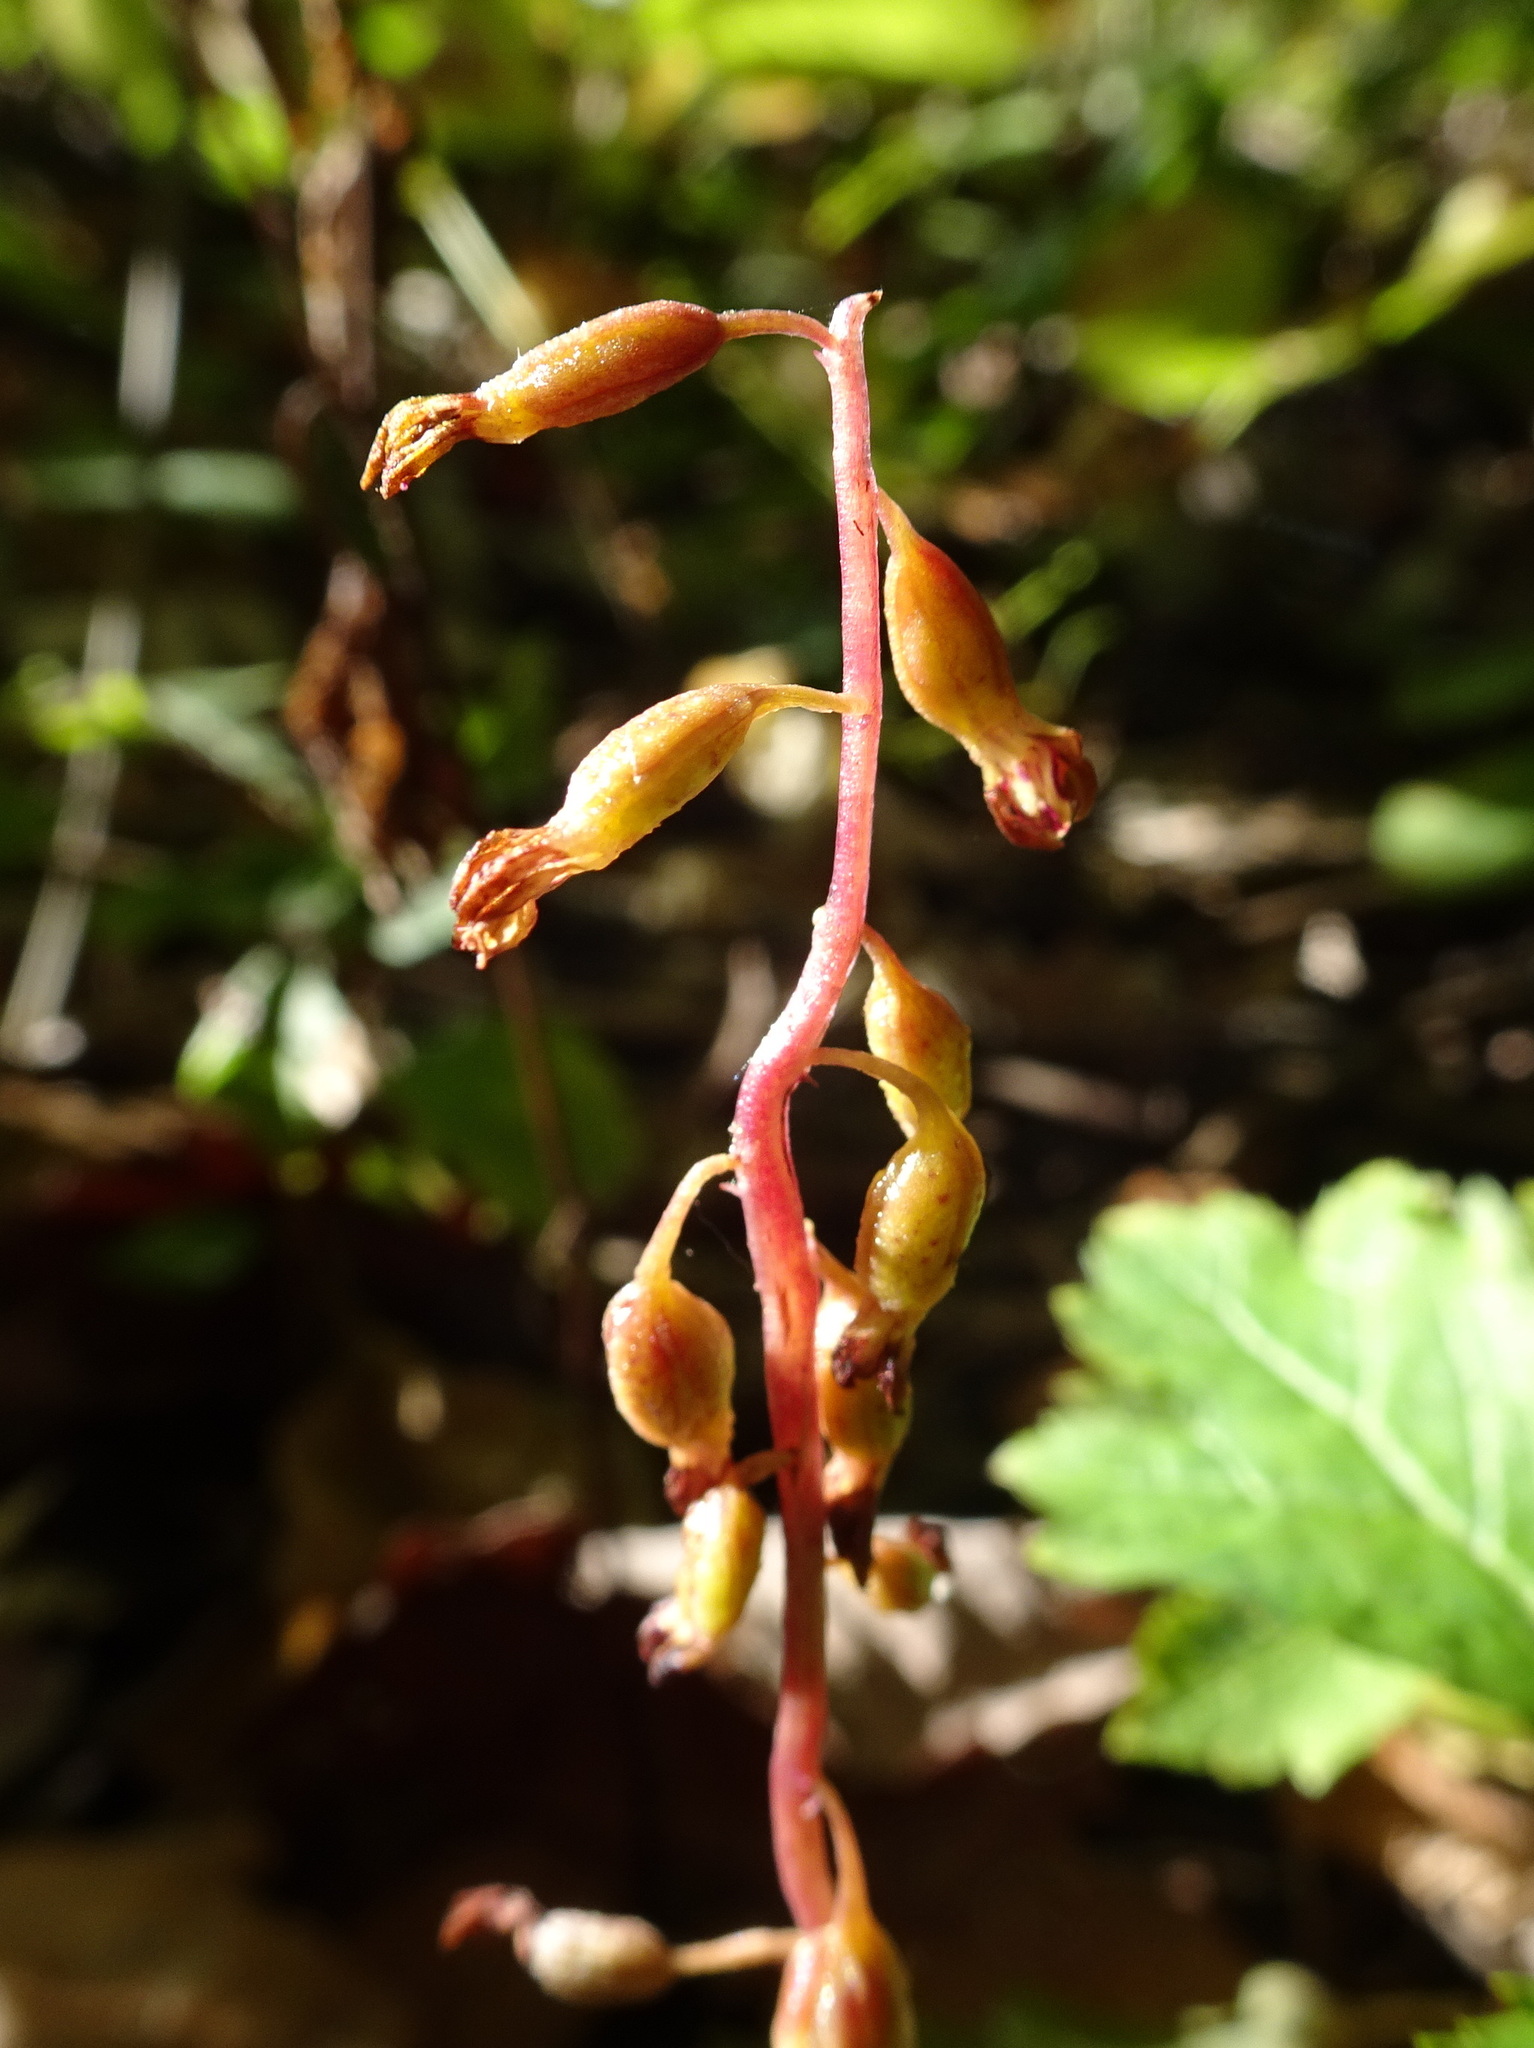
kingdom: Plantae
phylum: Tracheophyta
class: Liliopsida
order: Asparagales
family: Orchidaceae
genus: Corallorhiza
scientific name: Corallorhiza odontorhiza
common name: Autumn coralroot
